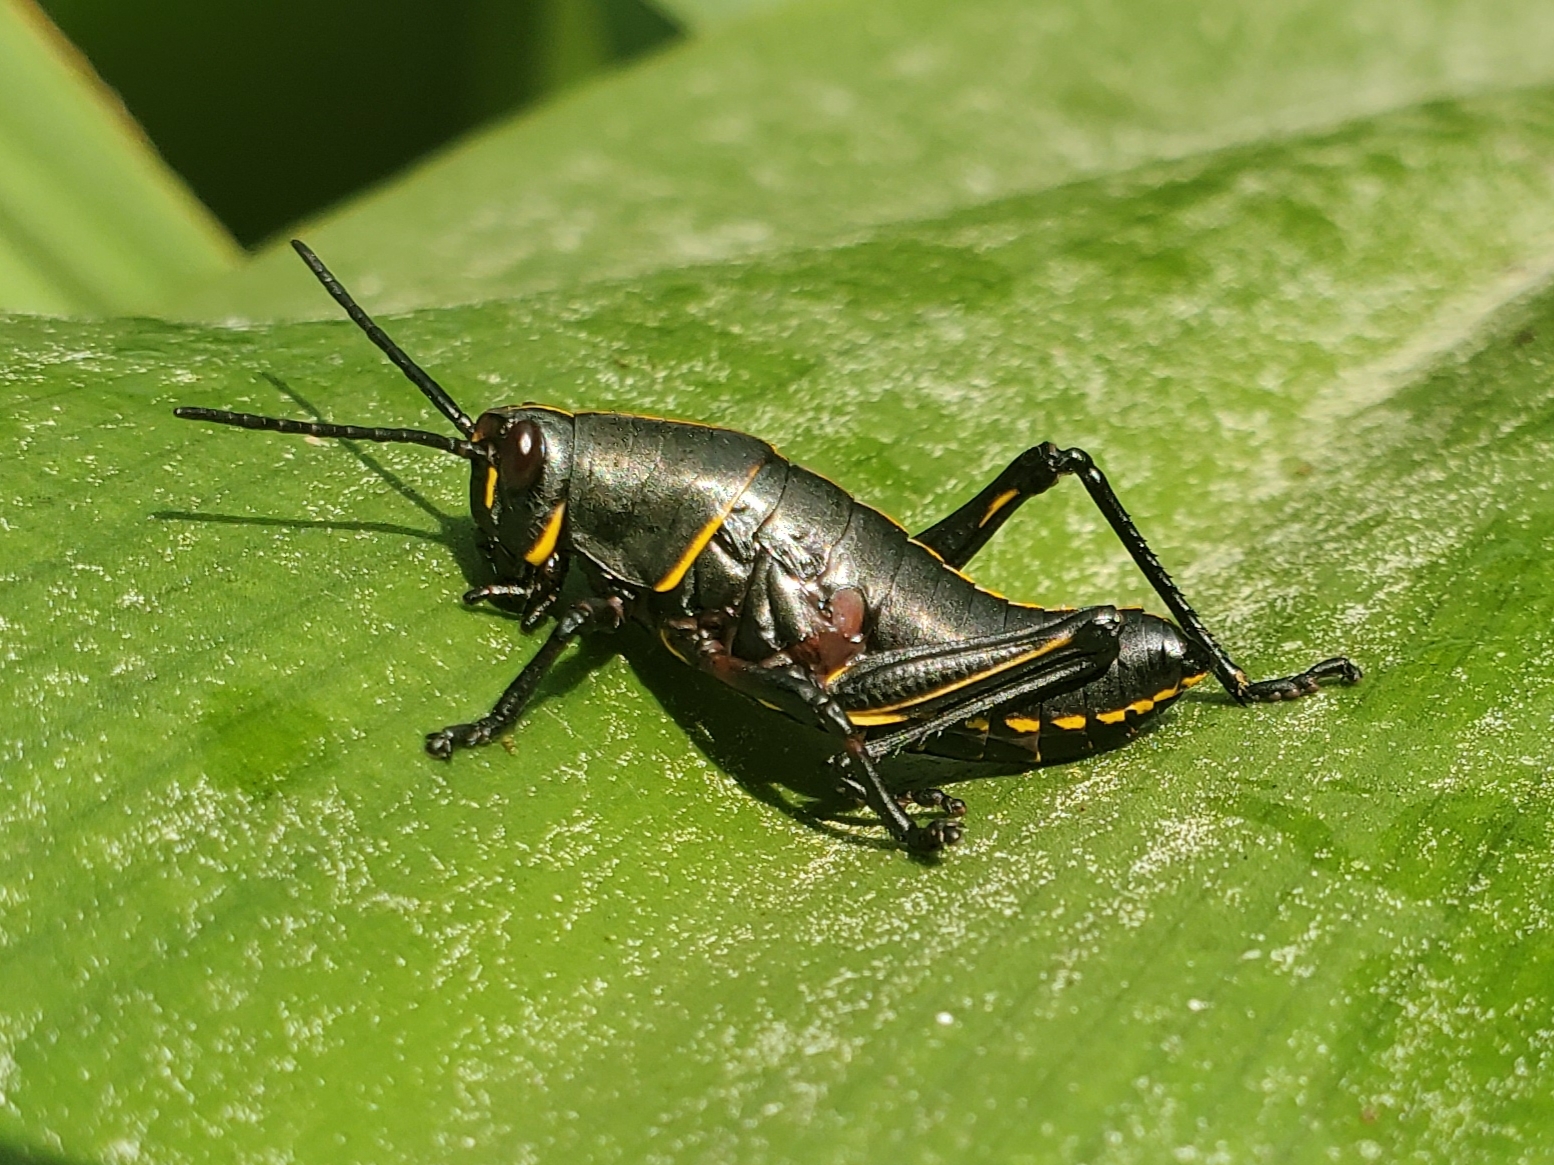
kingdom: Animalia
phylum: Arthropoda
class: Insecta
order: Orthoptera
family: Romaleidae
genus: Romalea
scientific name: Romalea microptera
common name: Eastern lubber grasshopper
